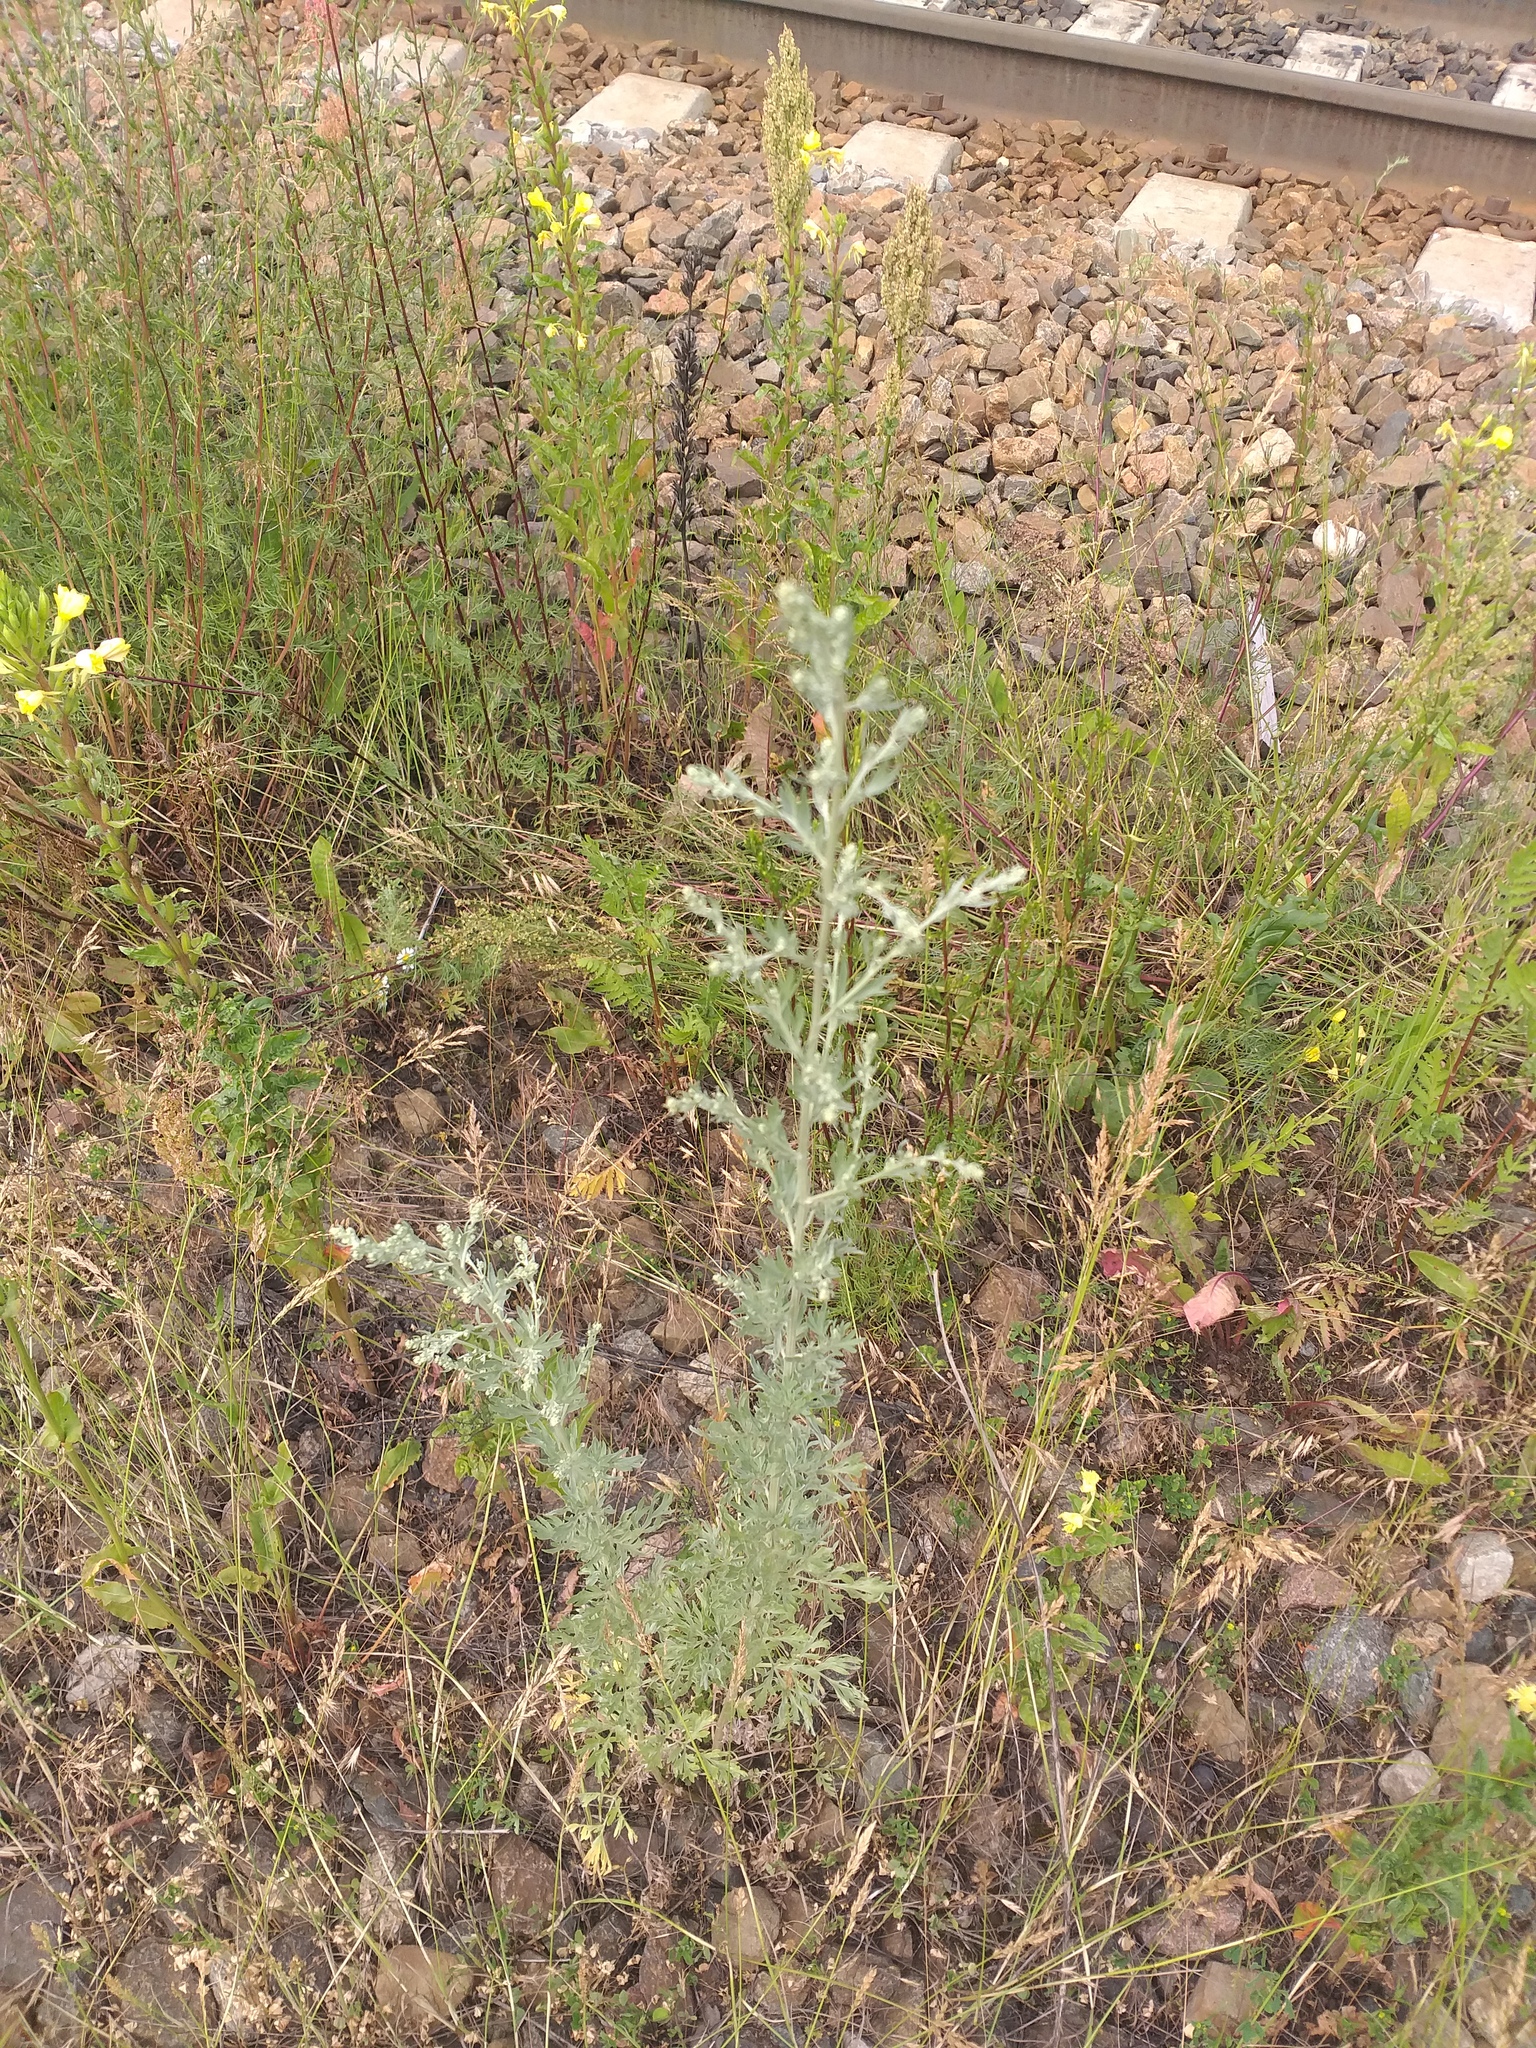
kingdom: Plantae
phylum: Tracheophyta
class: Magnoliopsida
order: Asterales
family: Asteraceae
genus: Artemisia
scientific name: Artemisia absinthium
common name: Wormwood
